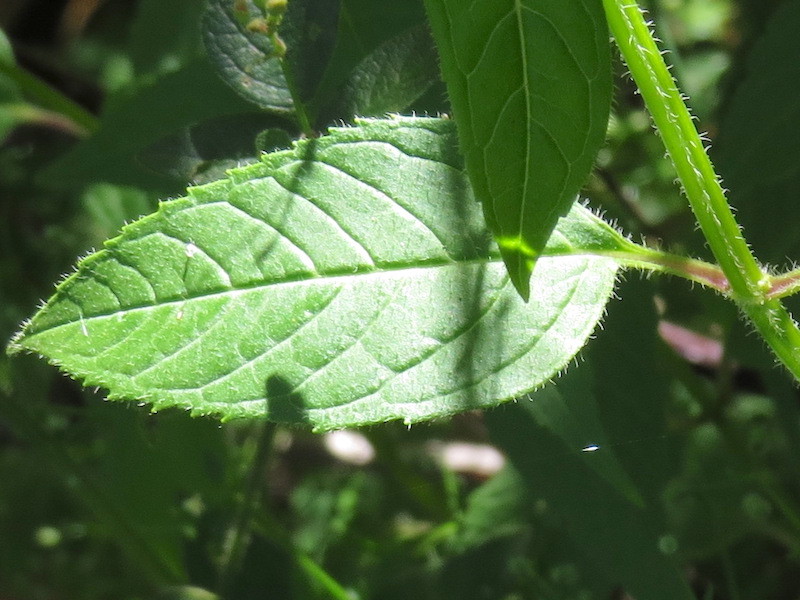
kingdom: Plantae
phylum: Tracheophyta
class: Magnoliopsida
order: Lamiales
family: Lamiaceae
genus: Monarda
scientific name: Monarda didyma
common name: Beebalm
